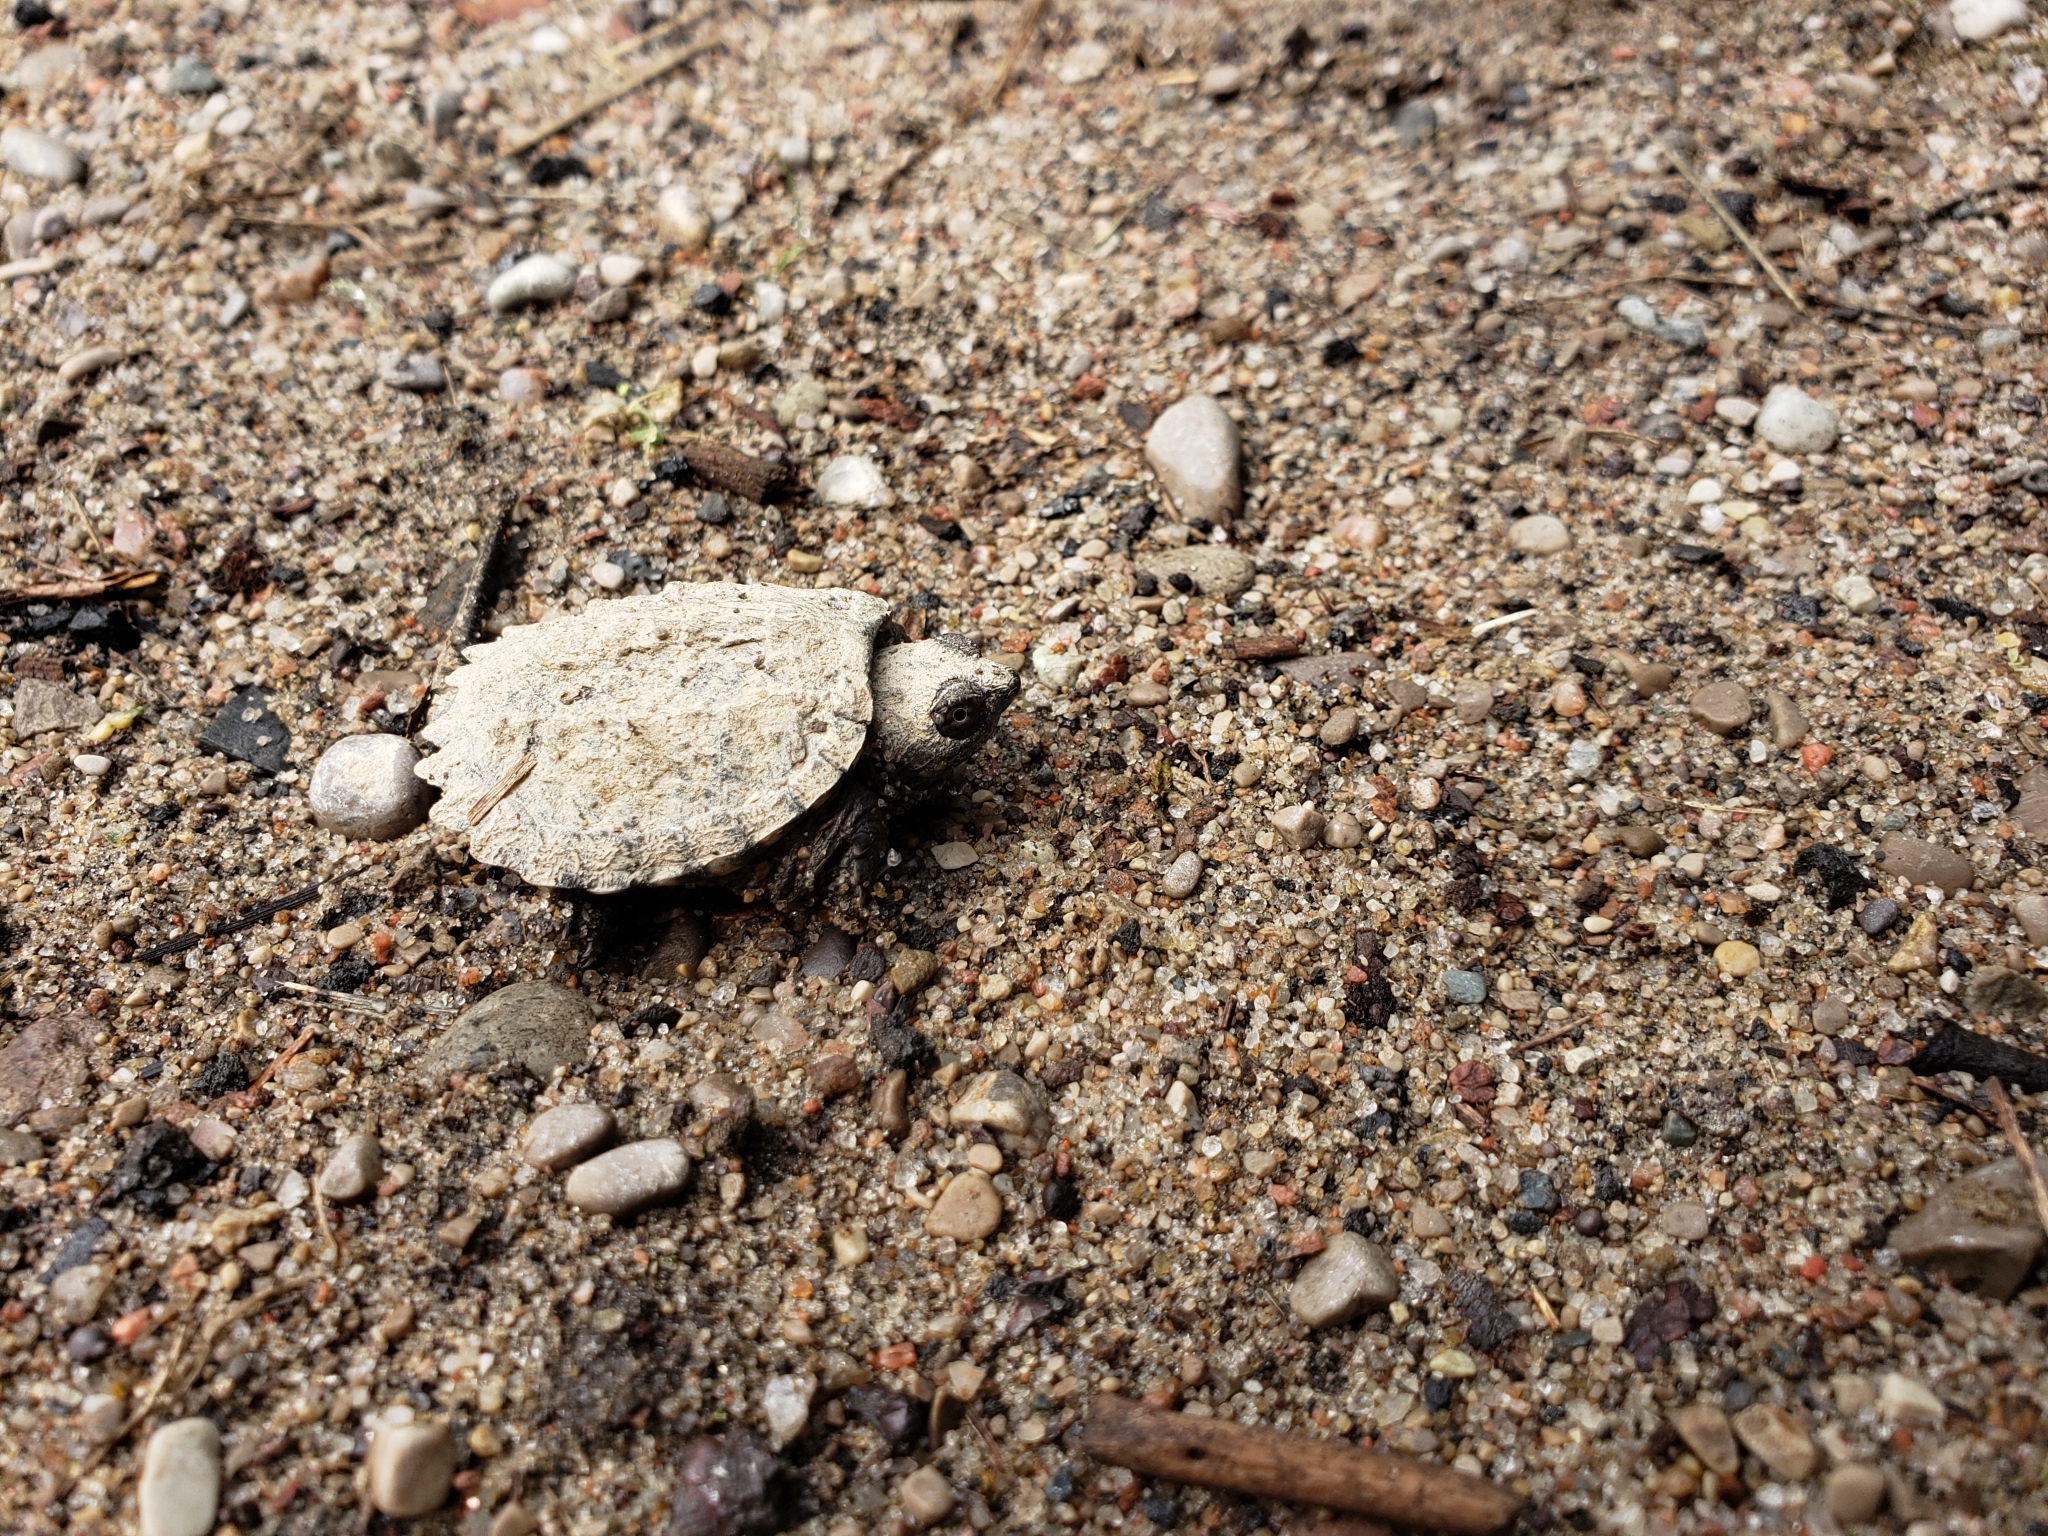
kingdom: Animalia
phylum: Chordata
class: Testudines
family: Chelydridae
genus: Chelydra
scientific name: Chelydra serpentina
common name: Common snapping turtle
